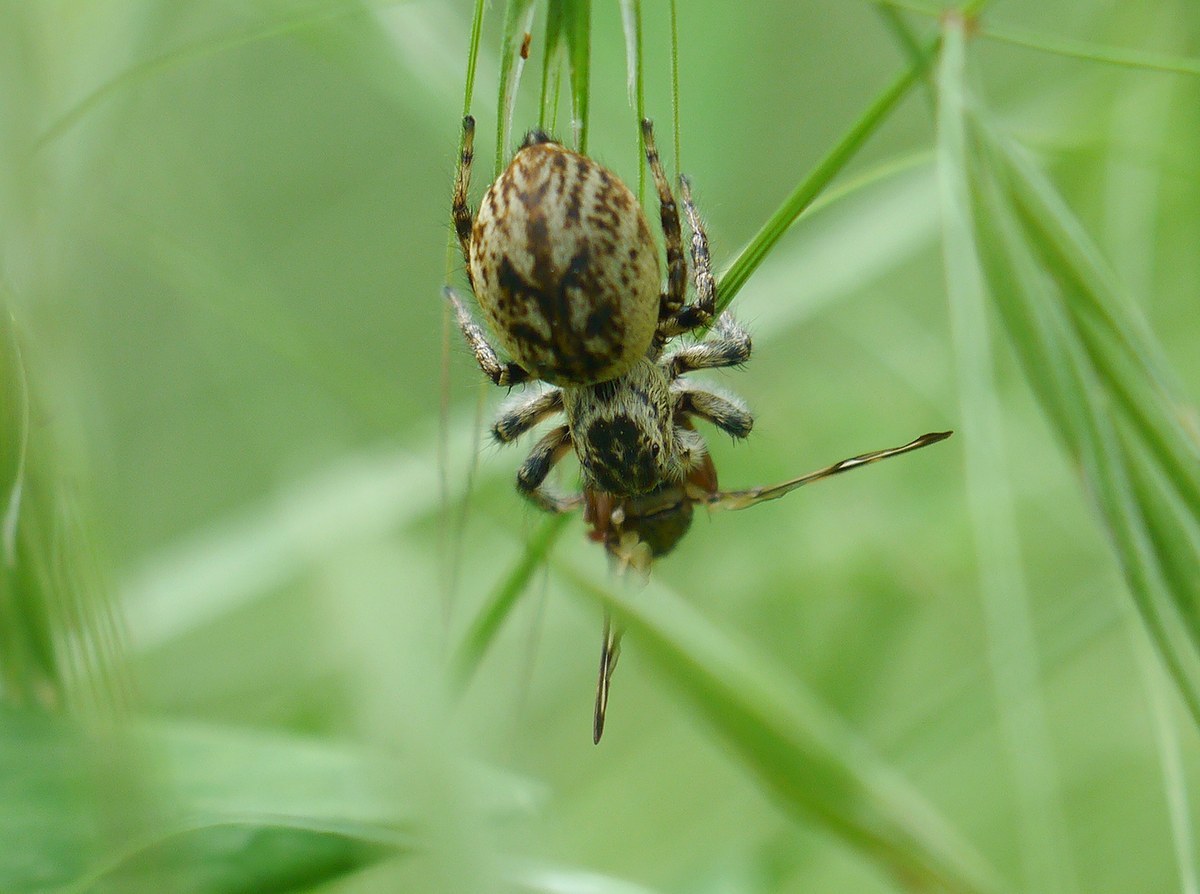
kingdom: Animalia
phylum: Arthropoda
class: Arachnida
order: Araneae
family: Salticidae
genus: Carrhotus
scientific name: Carrhotus xanthogramma
